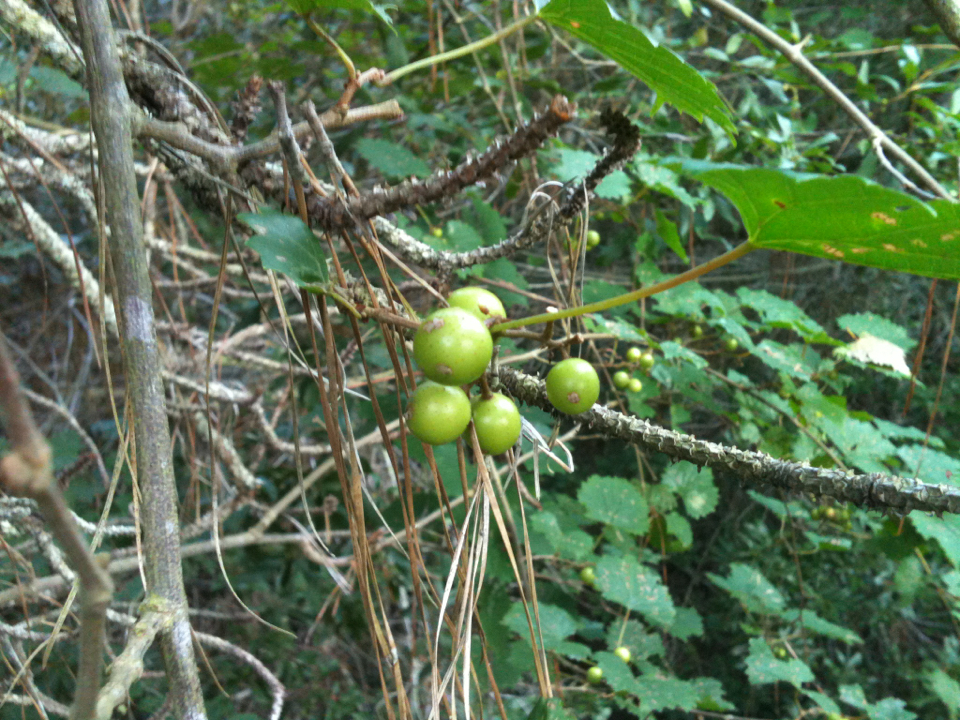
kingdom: Plantae
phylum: Tracheophyta
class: Magnoliopsida
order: Vitales
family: Vitaceae
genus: Vitis
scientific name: Vitis rotundifolia
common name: Muscadine grape
